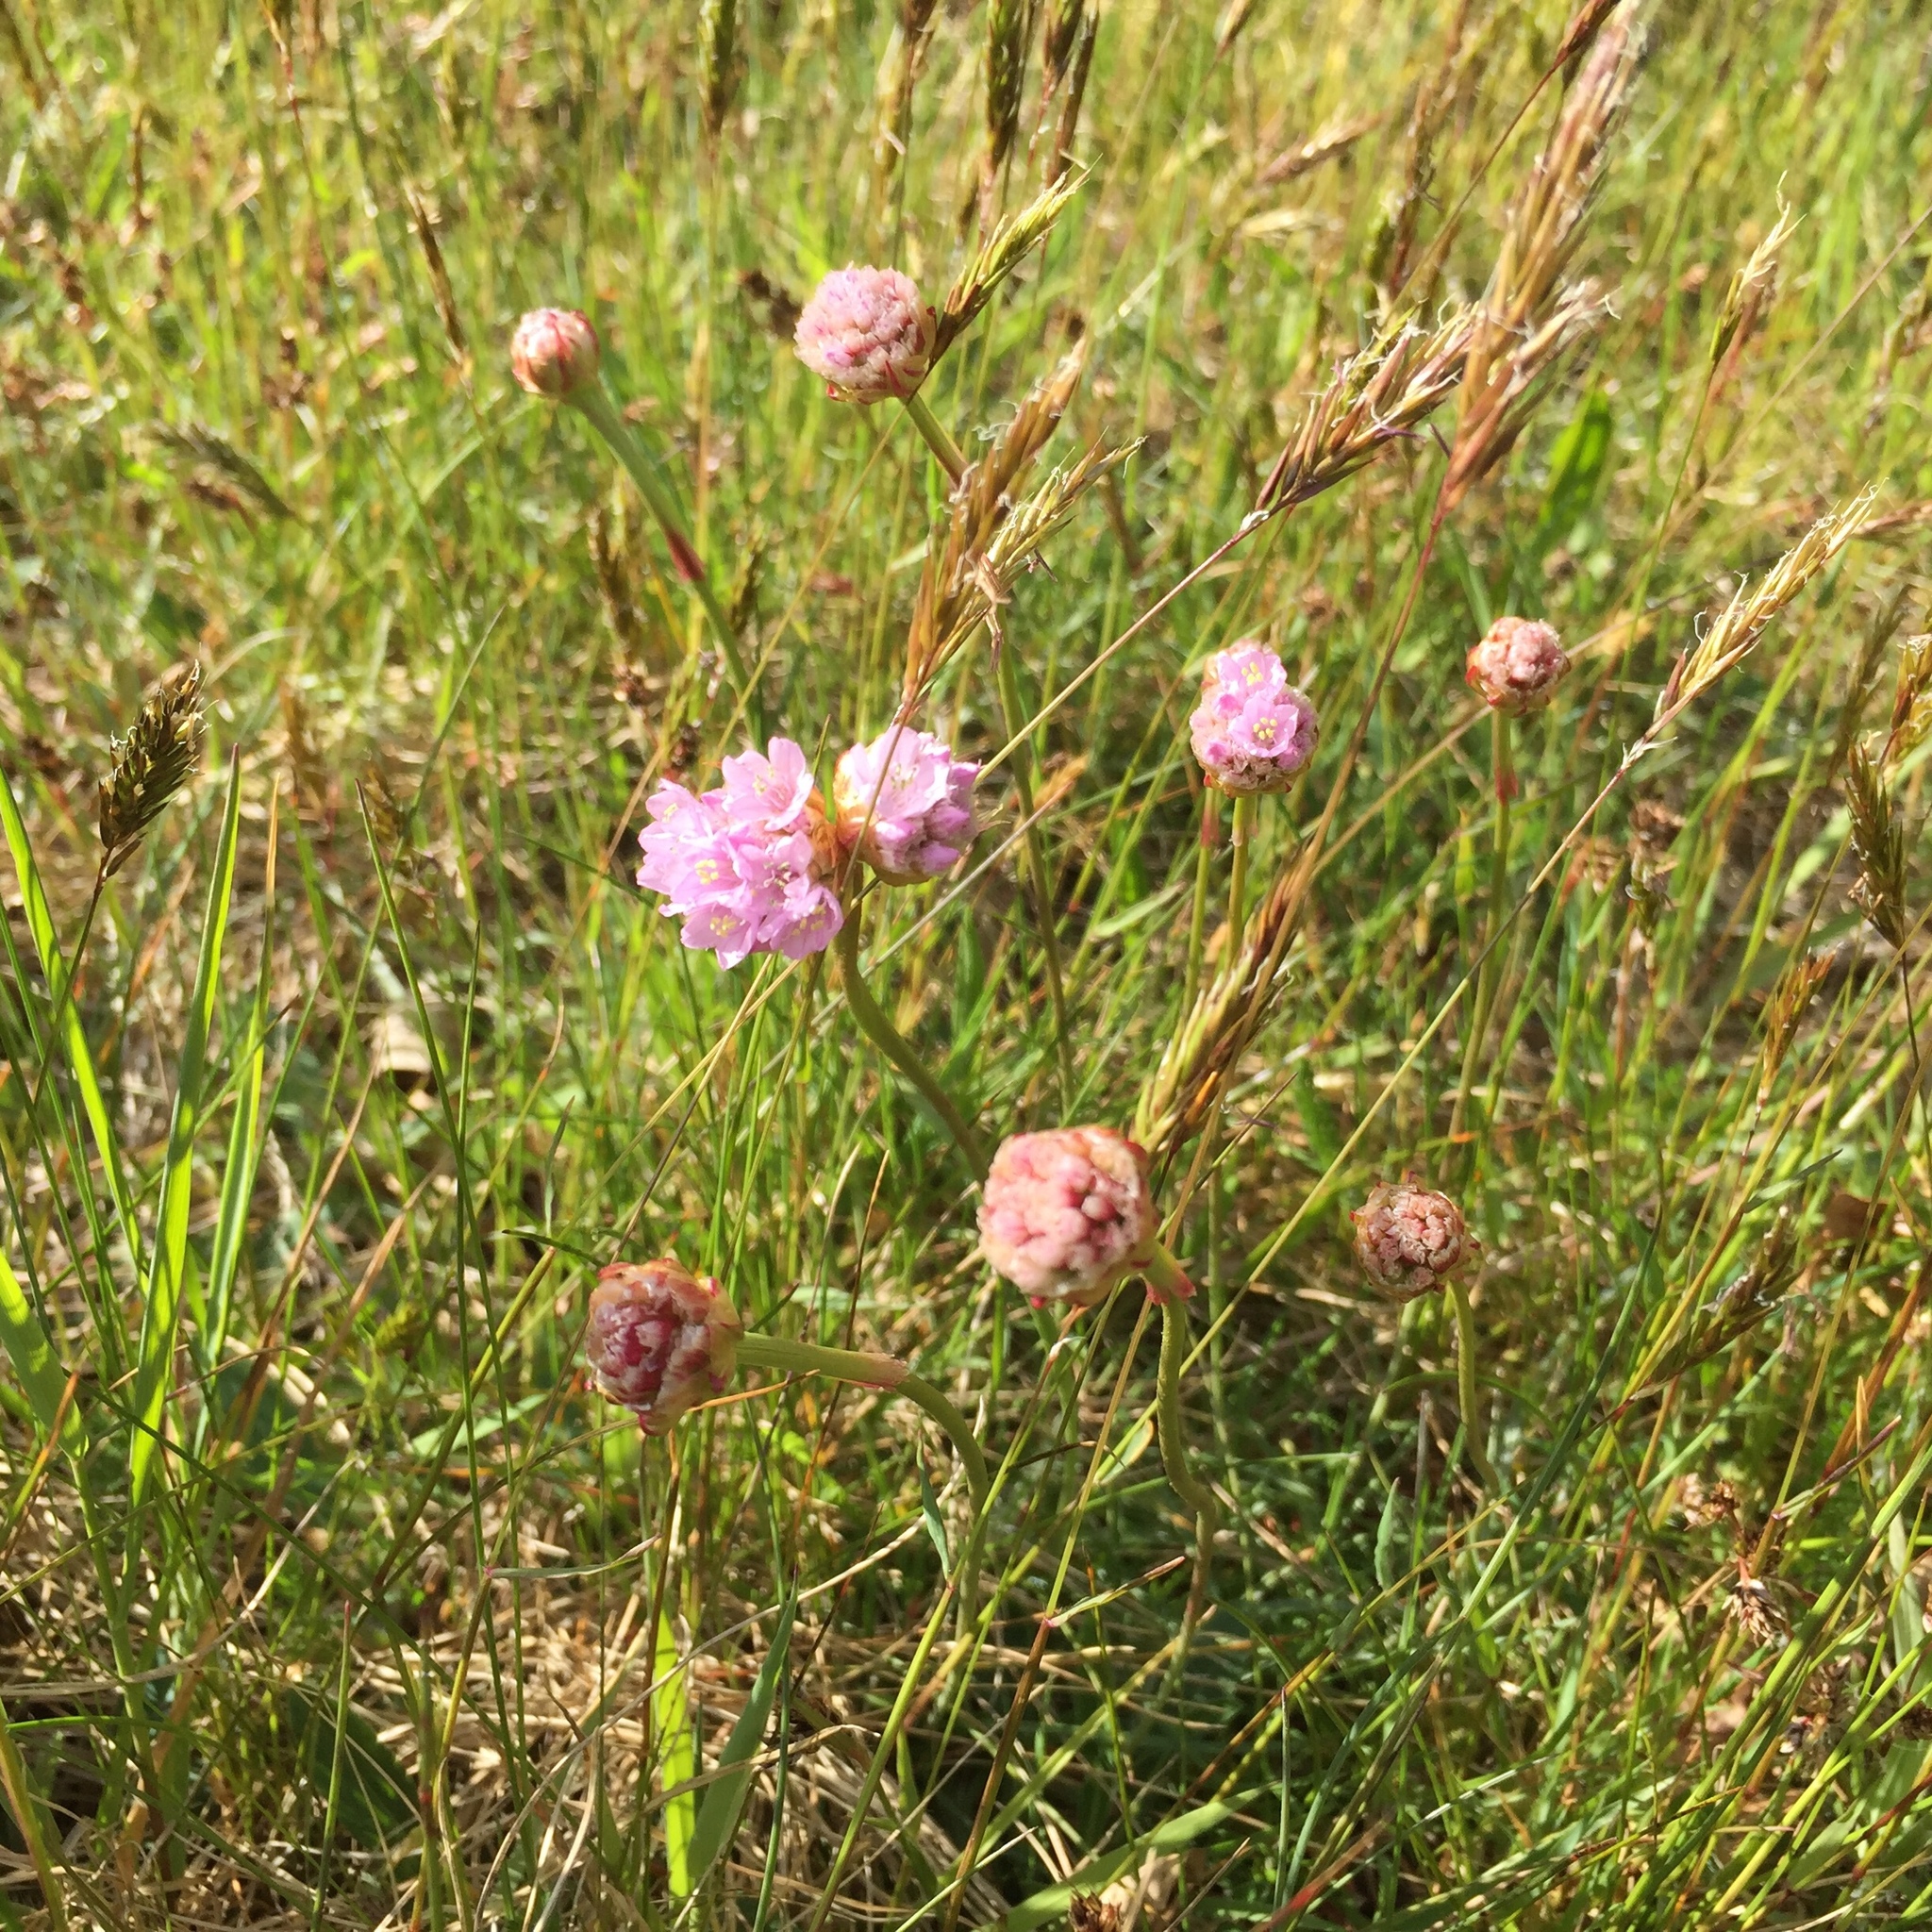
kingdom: Plantae
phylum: Tracheophyta
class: Magnoliopsida
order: Caryophyllales
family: Plumbaginaceae
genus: Armeria
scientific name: Armeria maritima
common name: Thrift
